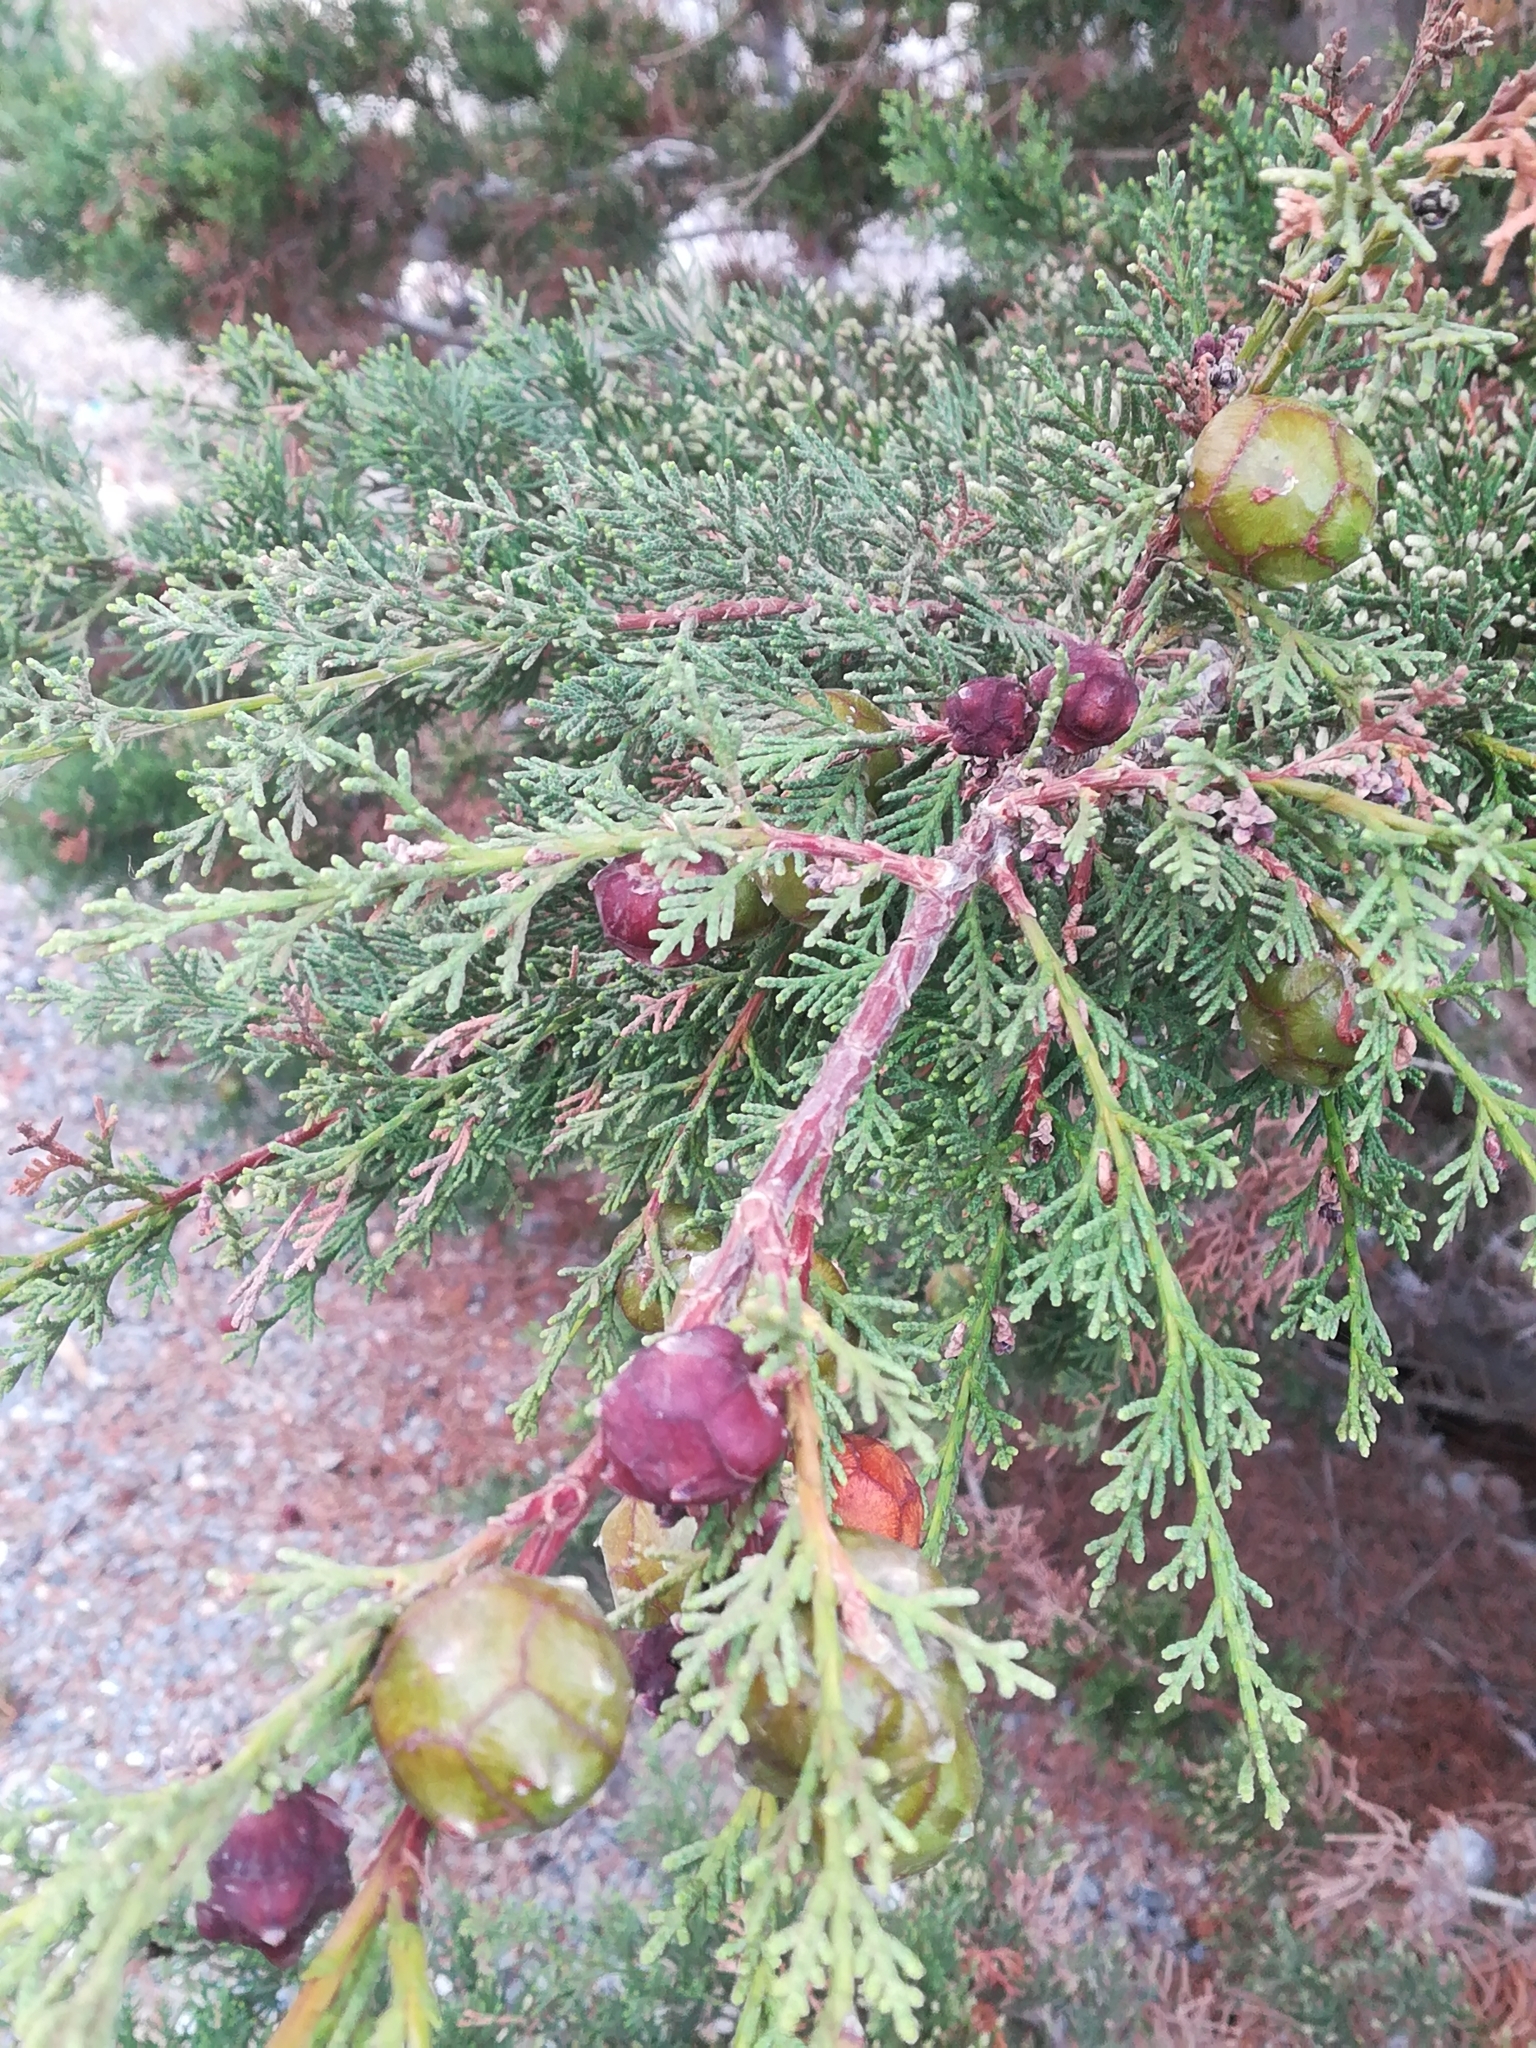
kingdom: Plantae
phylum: Tracheophyta
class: Pinopsida
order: Pinales
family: Cupressaceae
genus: Cupressus
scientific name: Cupressus sempervirens
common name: Italian cypress
